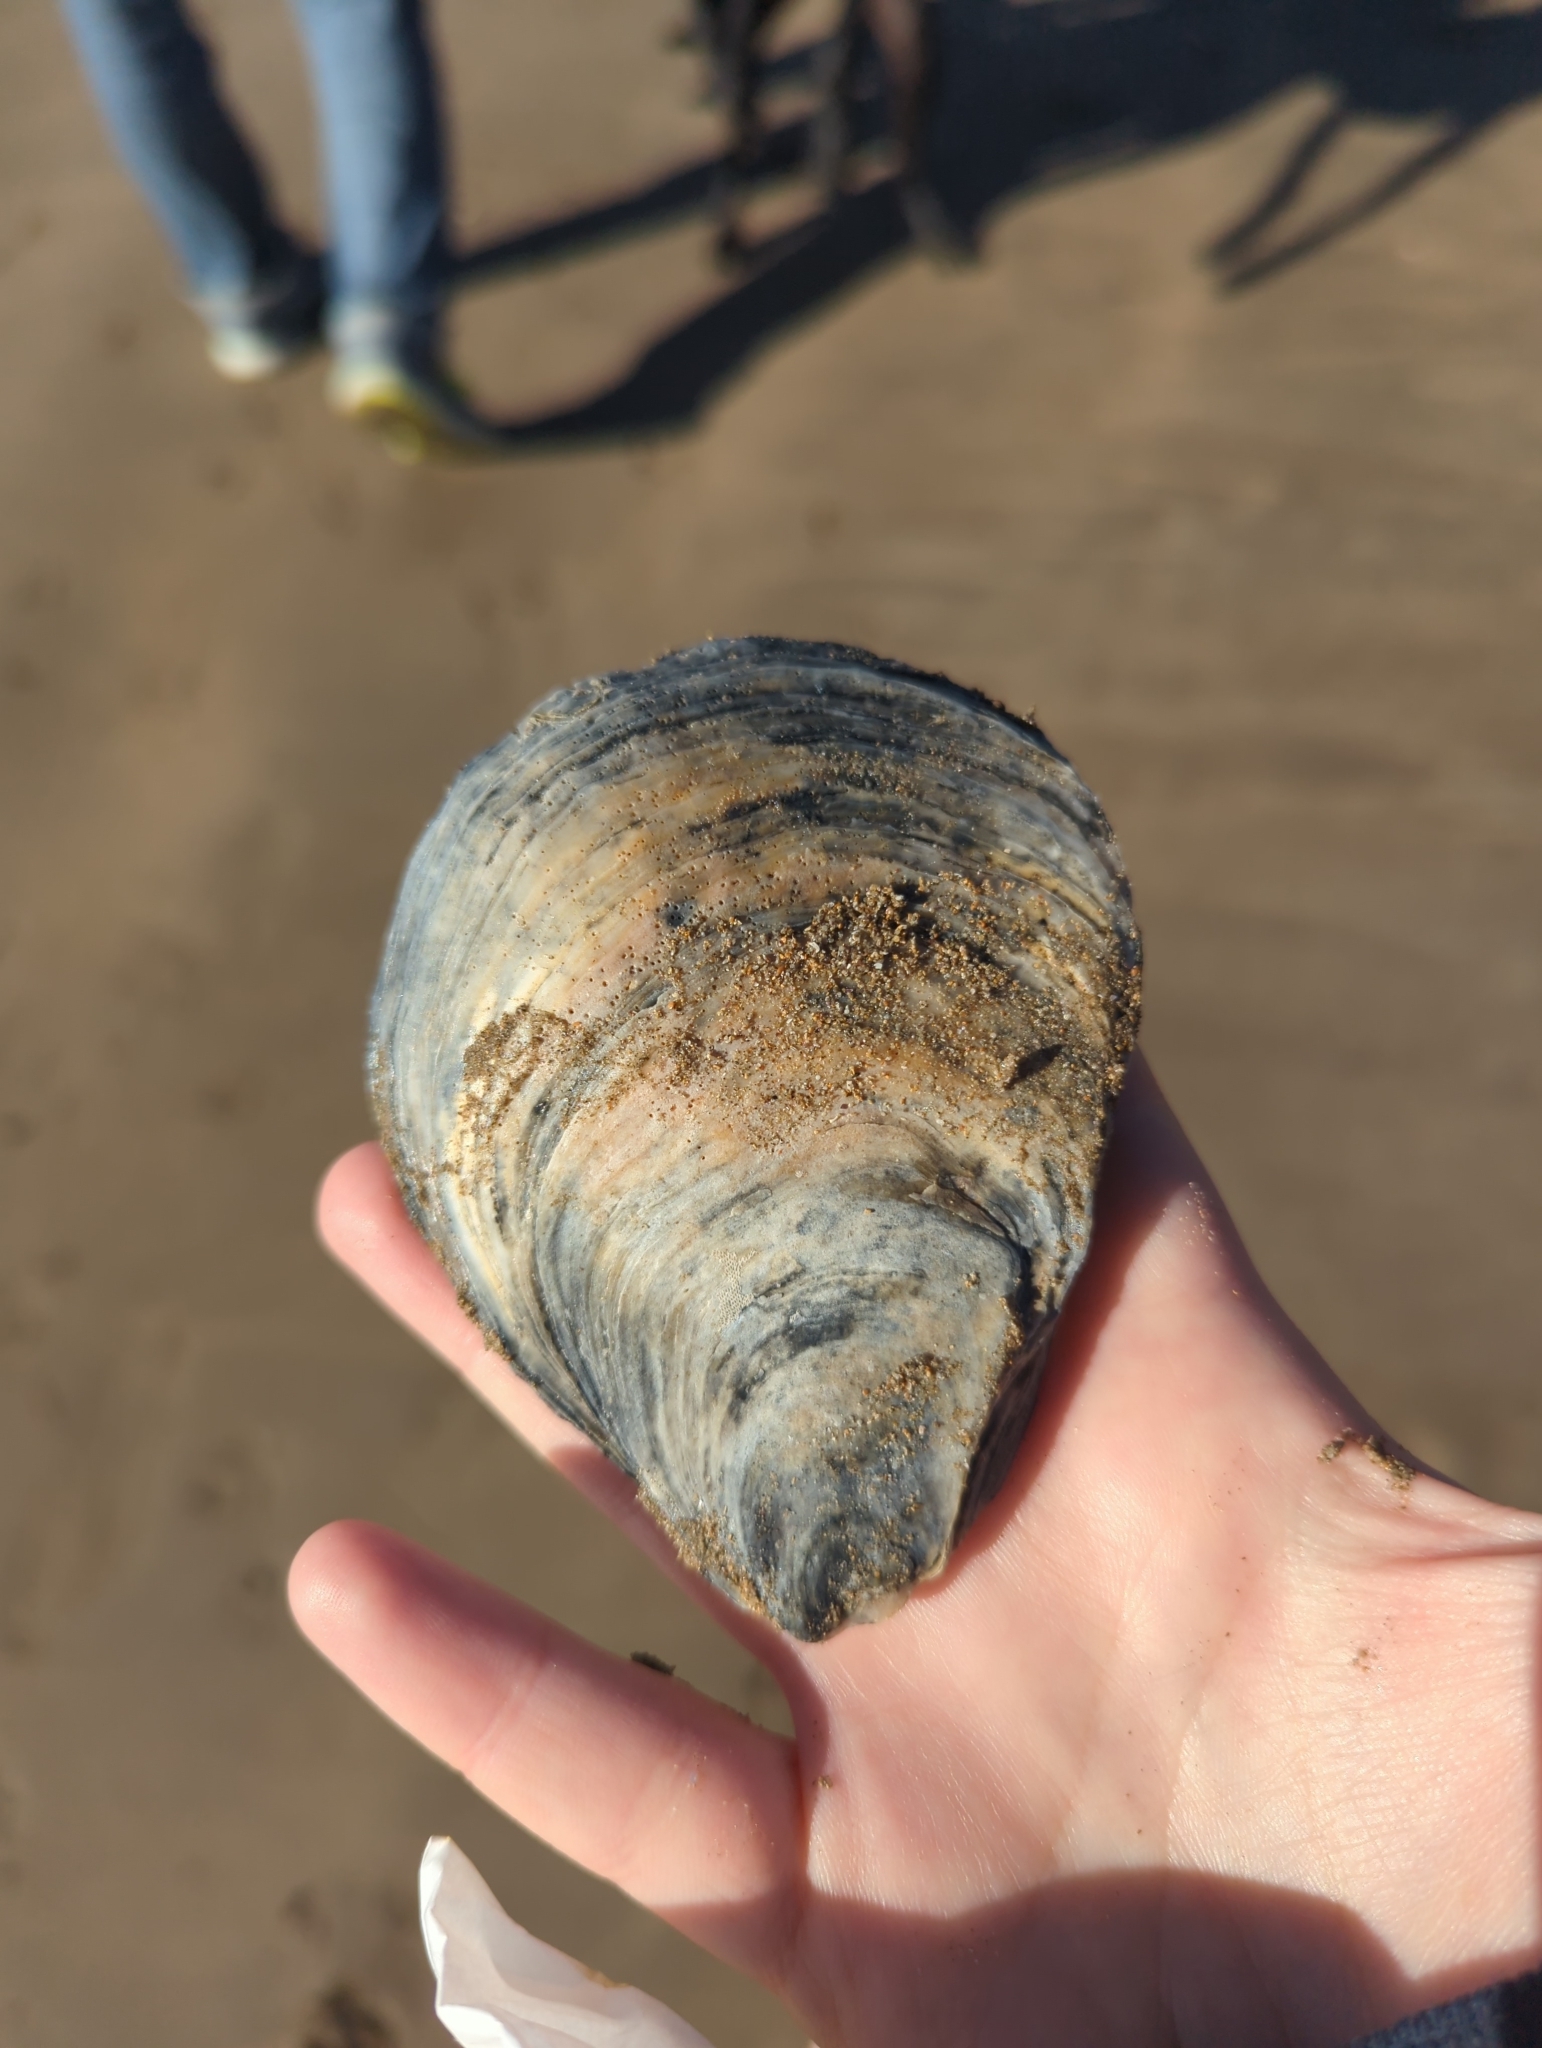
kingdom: Animalia
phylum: Mollusca
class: Bivalvia
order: Ostreida
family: Ostreidae
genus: Ostrea
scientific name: Ostrea angasi
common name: Angasi oyster
